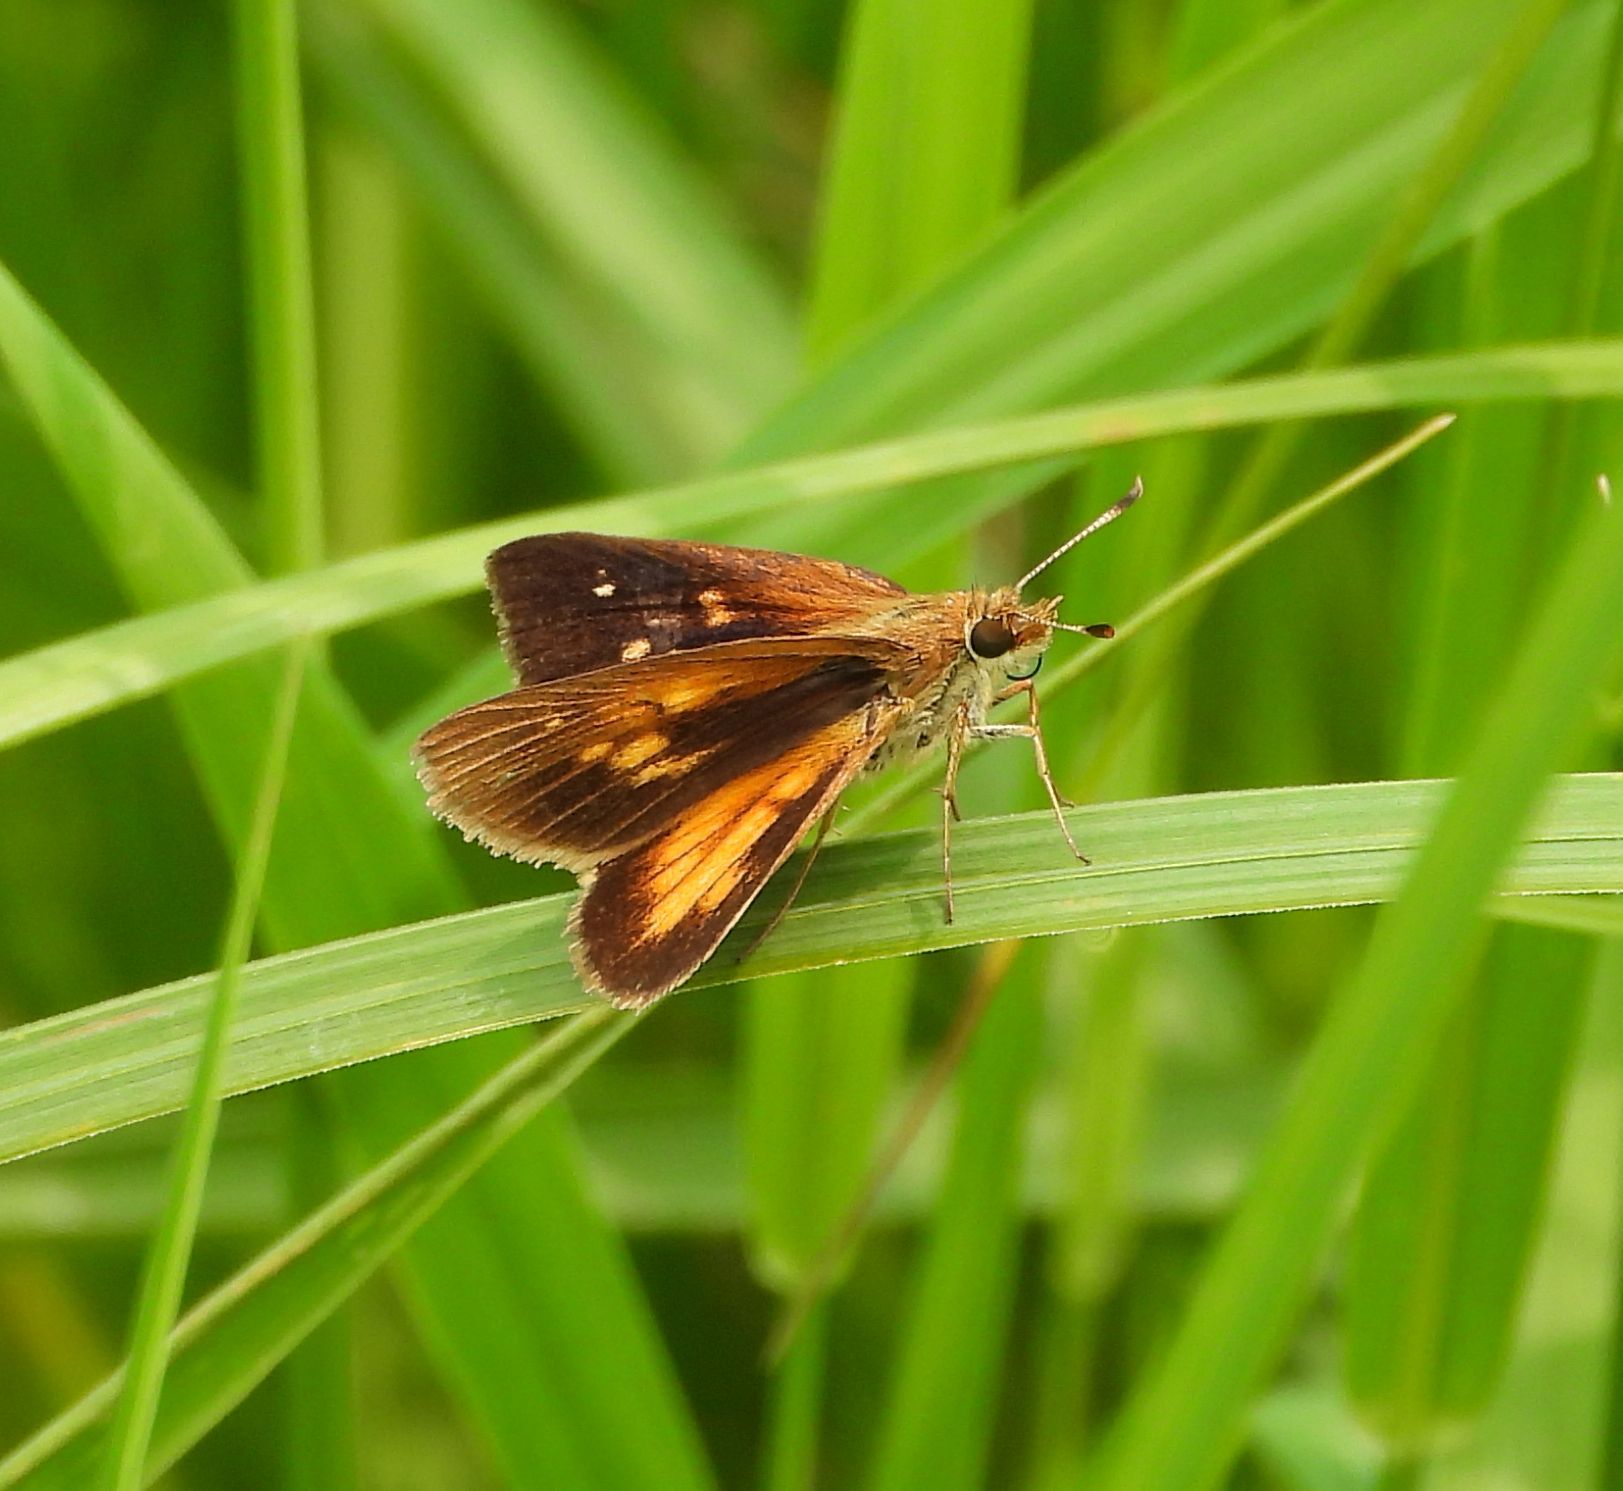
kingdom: Animalia
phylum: Arthropoda
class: Insecta
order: Lepidoptera
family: Hesperiidae
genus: Poanes
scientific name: Poanes viator
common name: Broad-winged skipper
